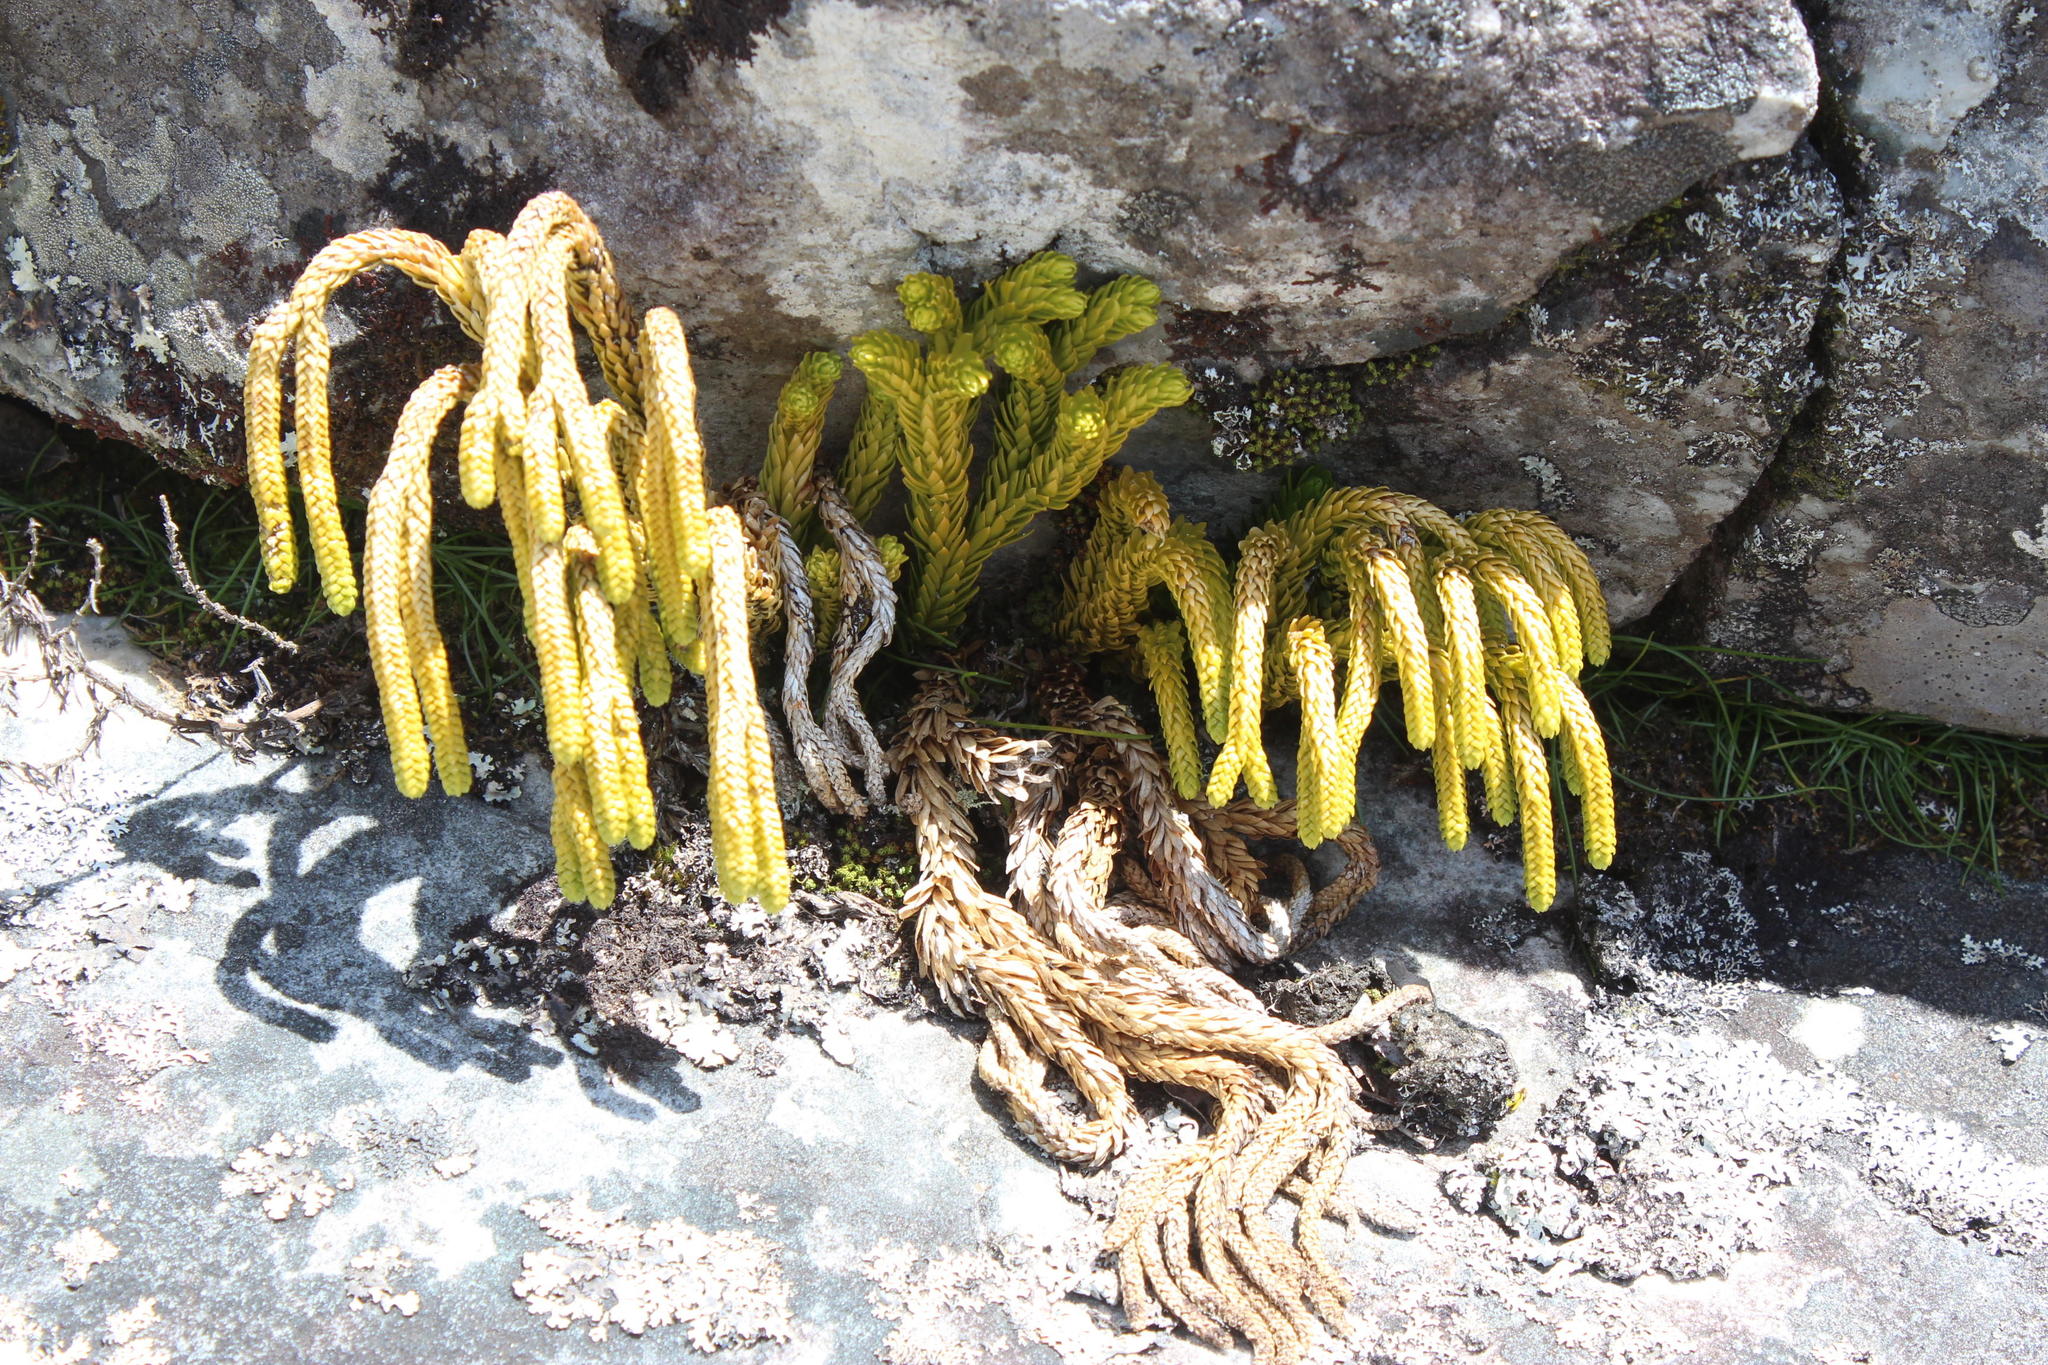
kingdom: Plantae
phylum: Tracheophyta
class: Lycopodiopsida
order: Lycopodiales
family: Lycopodiaceae
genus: Phlegmariurus
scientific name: Phlegmariurus gnidioides
